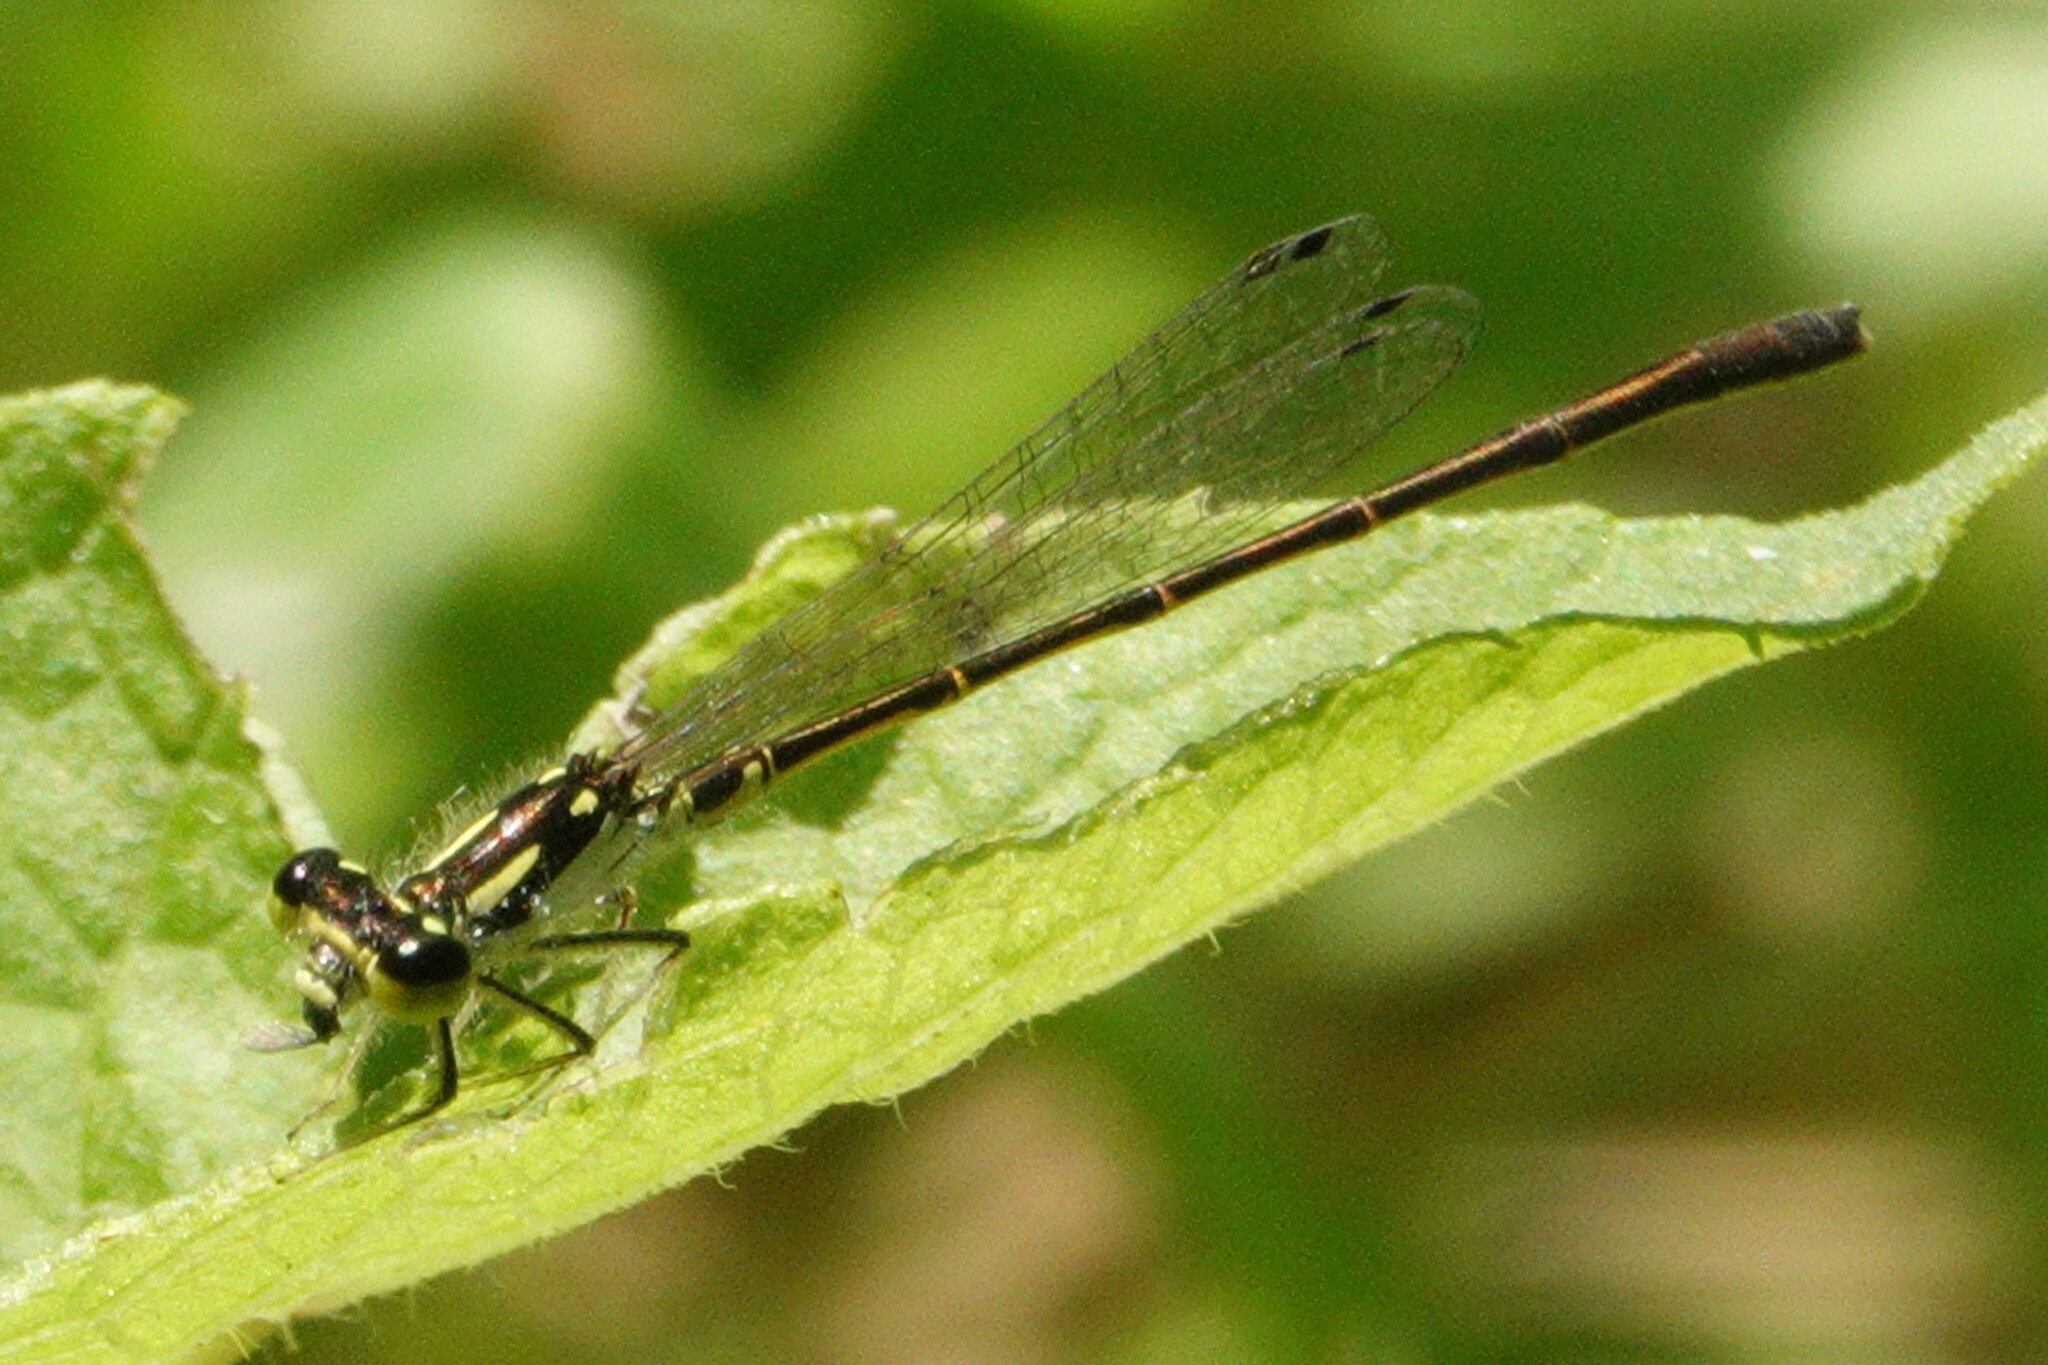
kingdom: Animalia
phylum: Arthropoda
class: Insecta
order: Odonata
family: Coenagrionidae
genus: Ischnura
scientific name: Ischnura posita
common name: Fragile forktail
